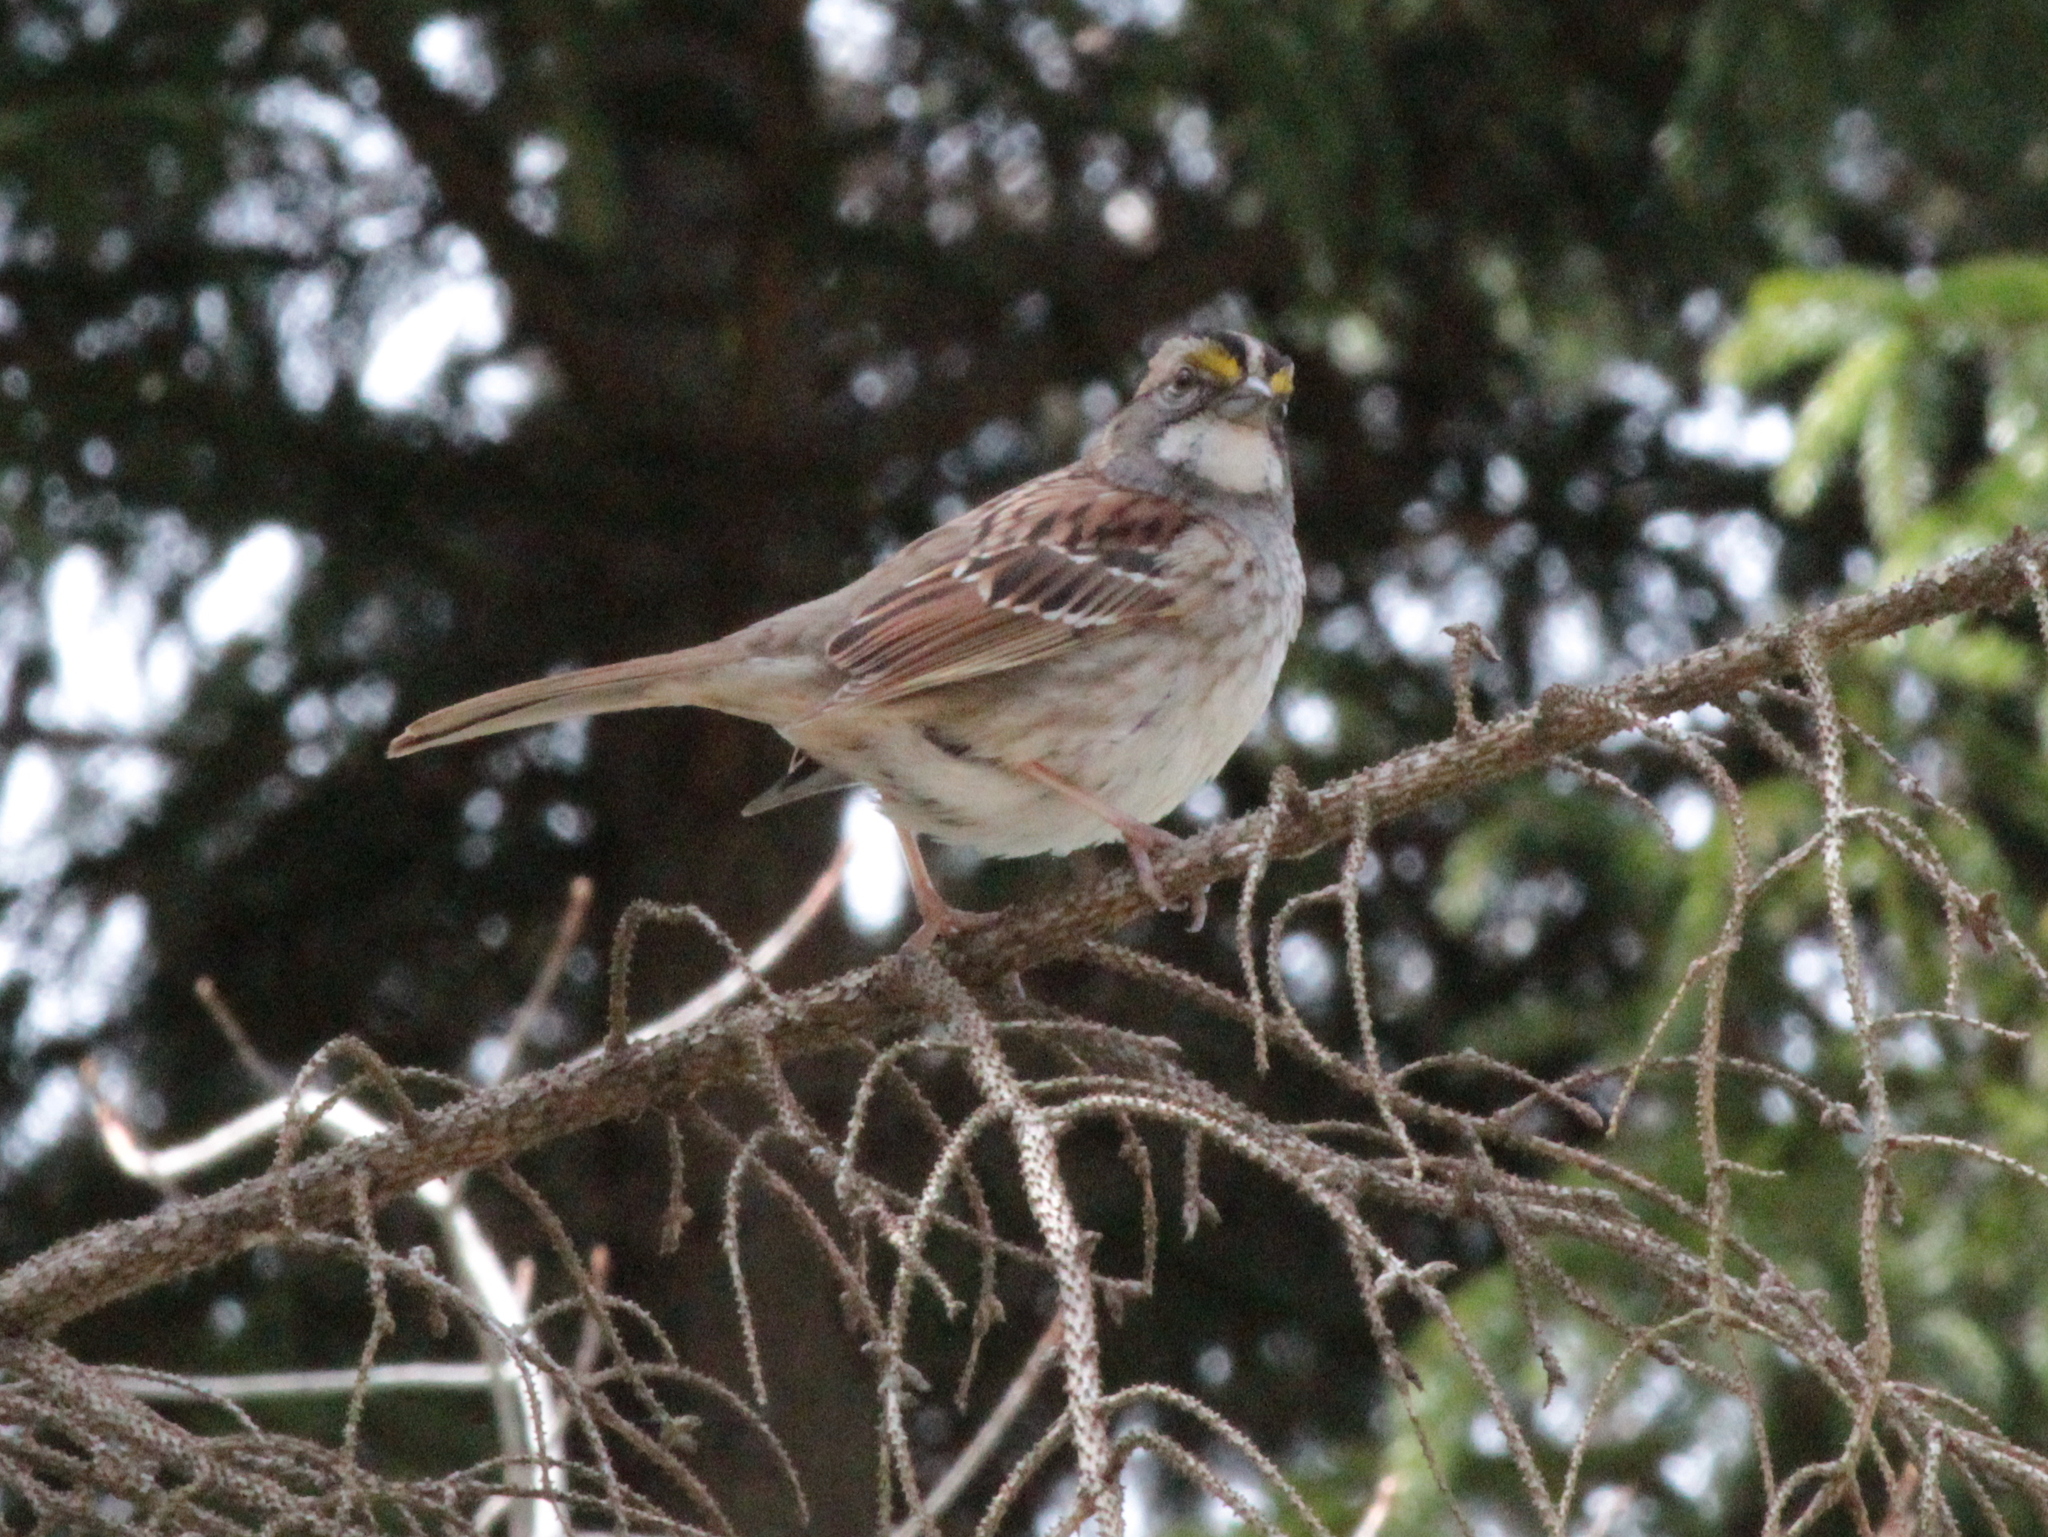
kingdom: Animalia
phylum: Chordata
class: Aves
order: Passeriformes
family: Passerellidae
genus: Zonotrichia
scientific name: Zonotrichia albicollis
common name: White-throated sparrow
